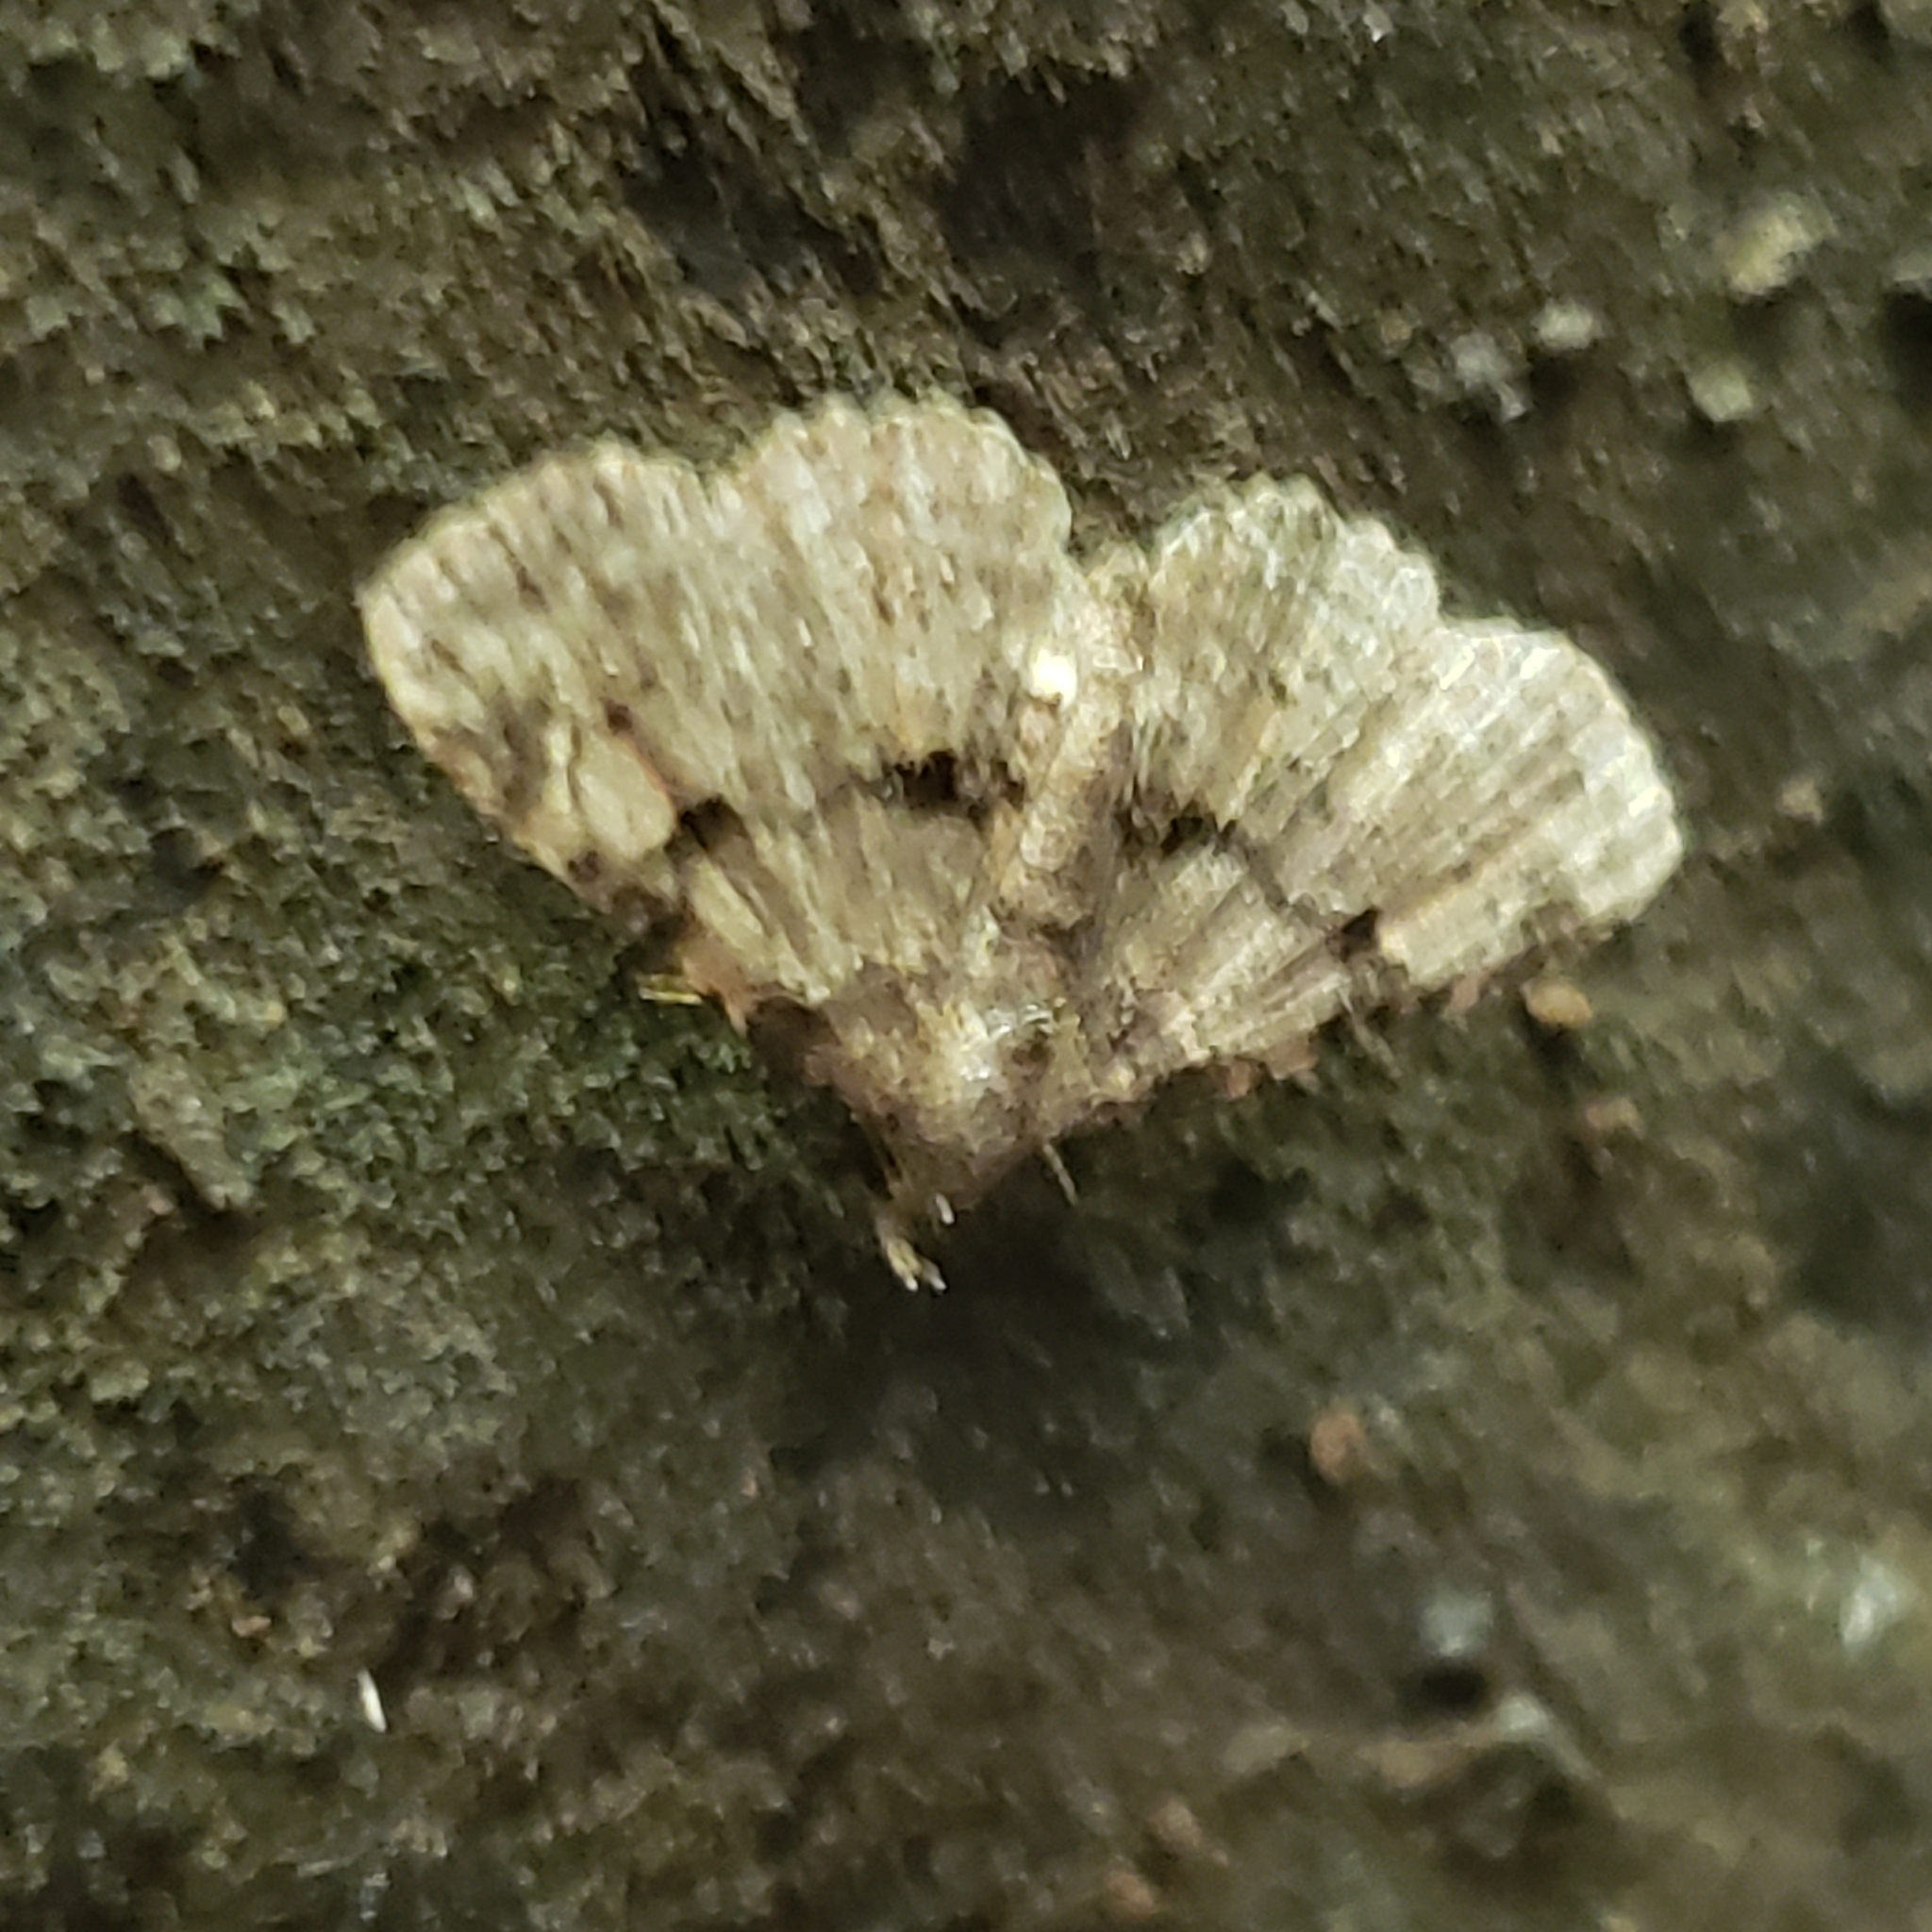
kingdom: Animalia
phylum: Arthropoda
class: Insecta
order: Lepidoptera
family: Erebidae
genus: Metalectra
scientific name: Metalectra quadrisignata
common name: Four-spotted fungus moth
